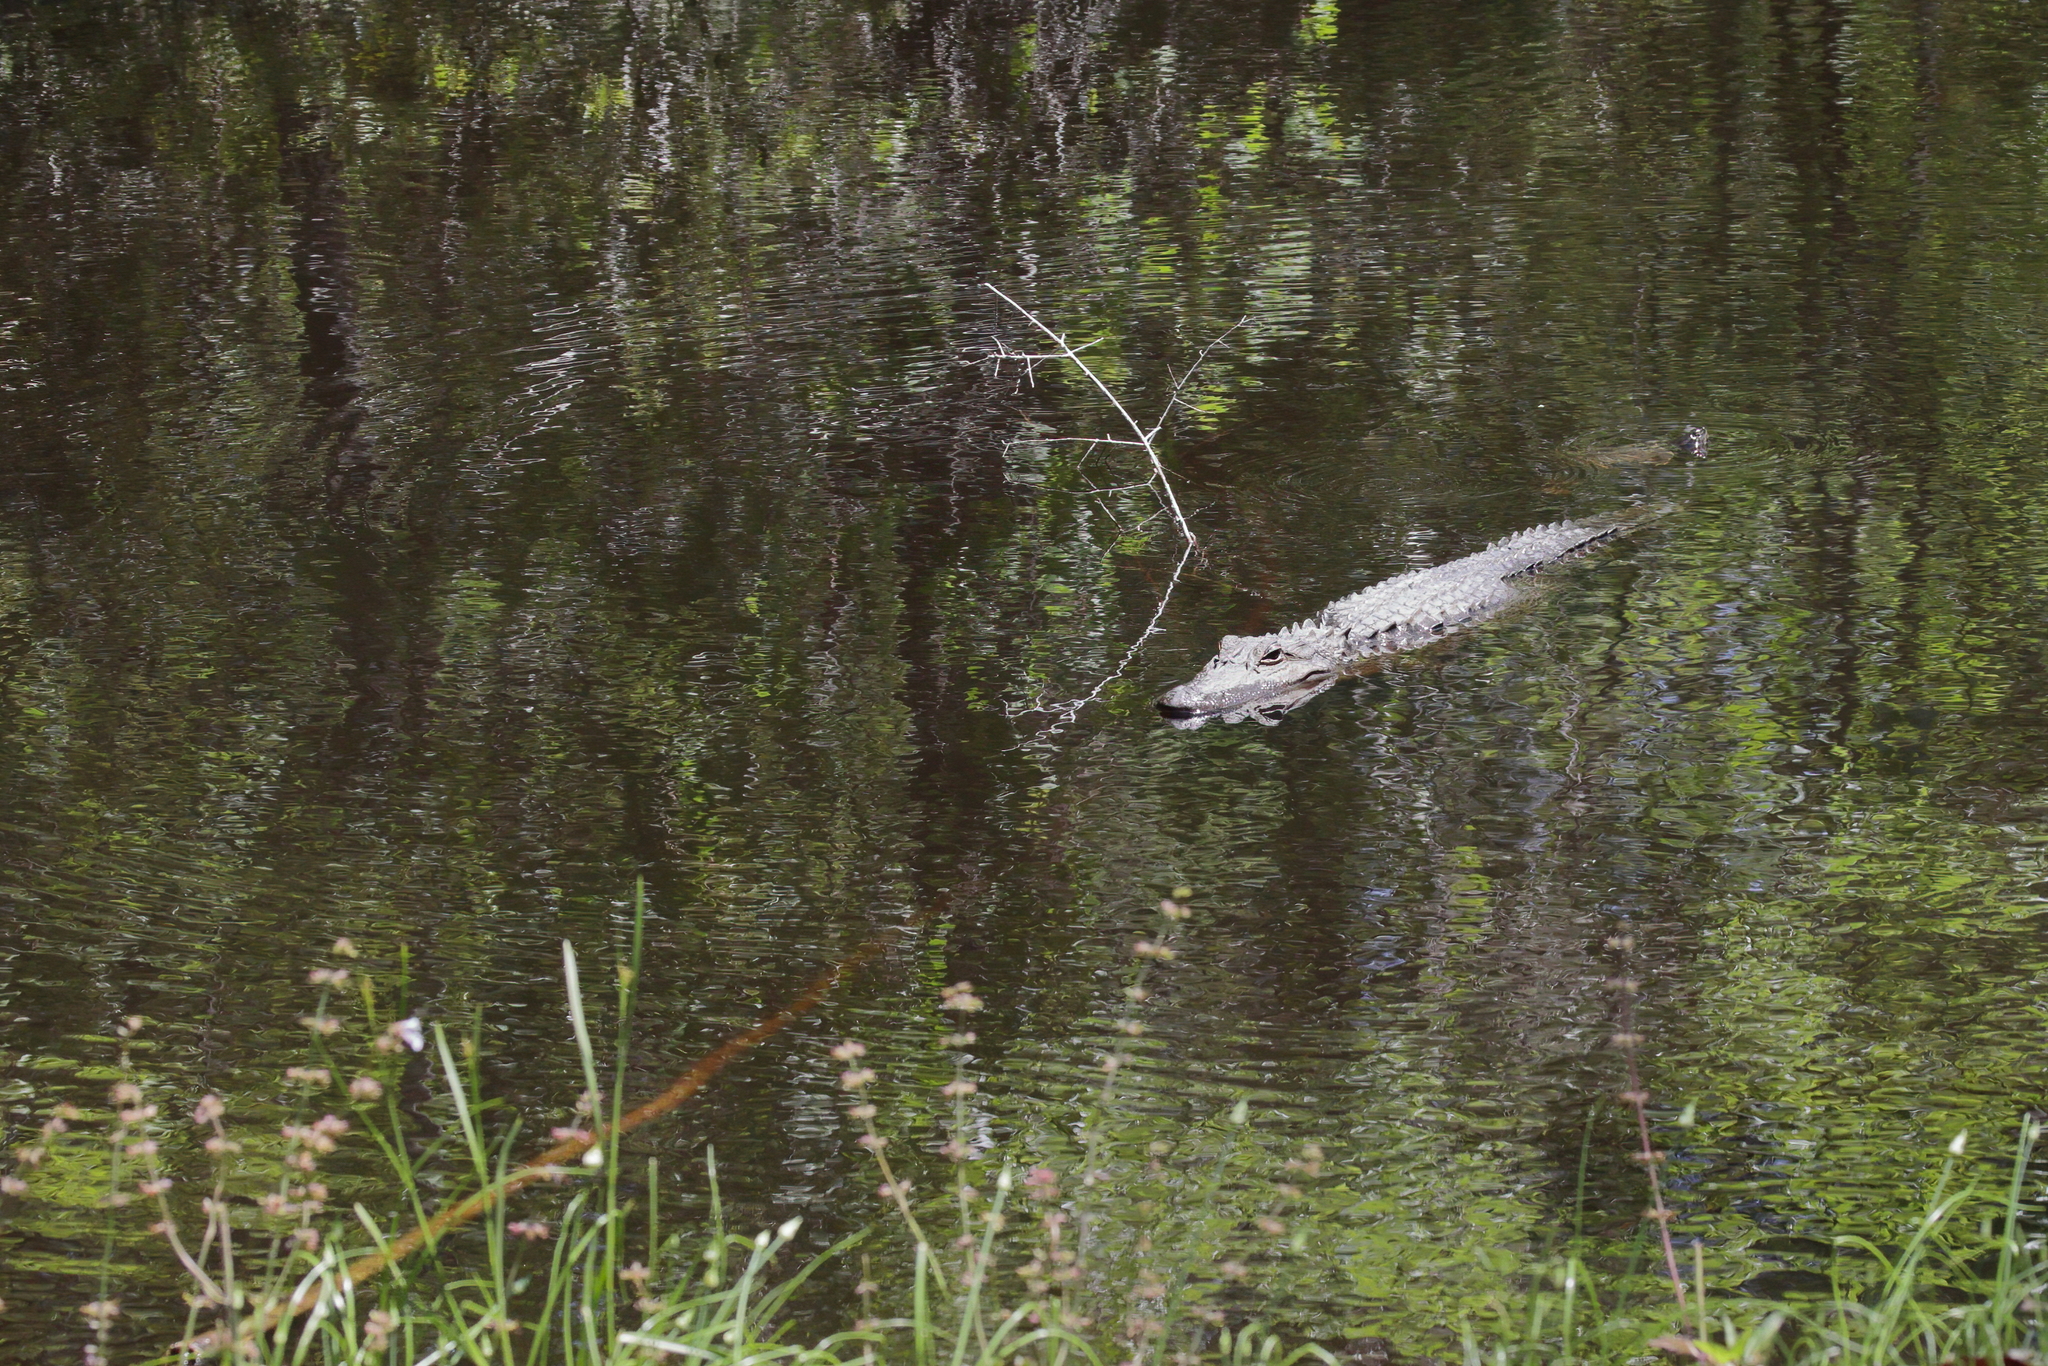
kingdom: Animalia
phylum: Chordata
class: Crocodylia
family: Alligatoridae
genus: Alligator
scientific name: Alligator mississippiensis
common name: American alligator
